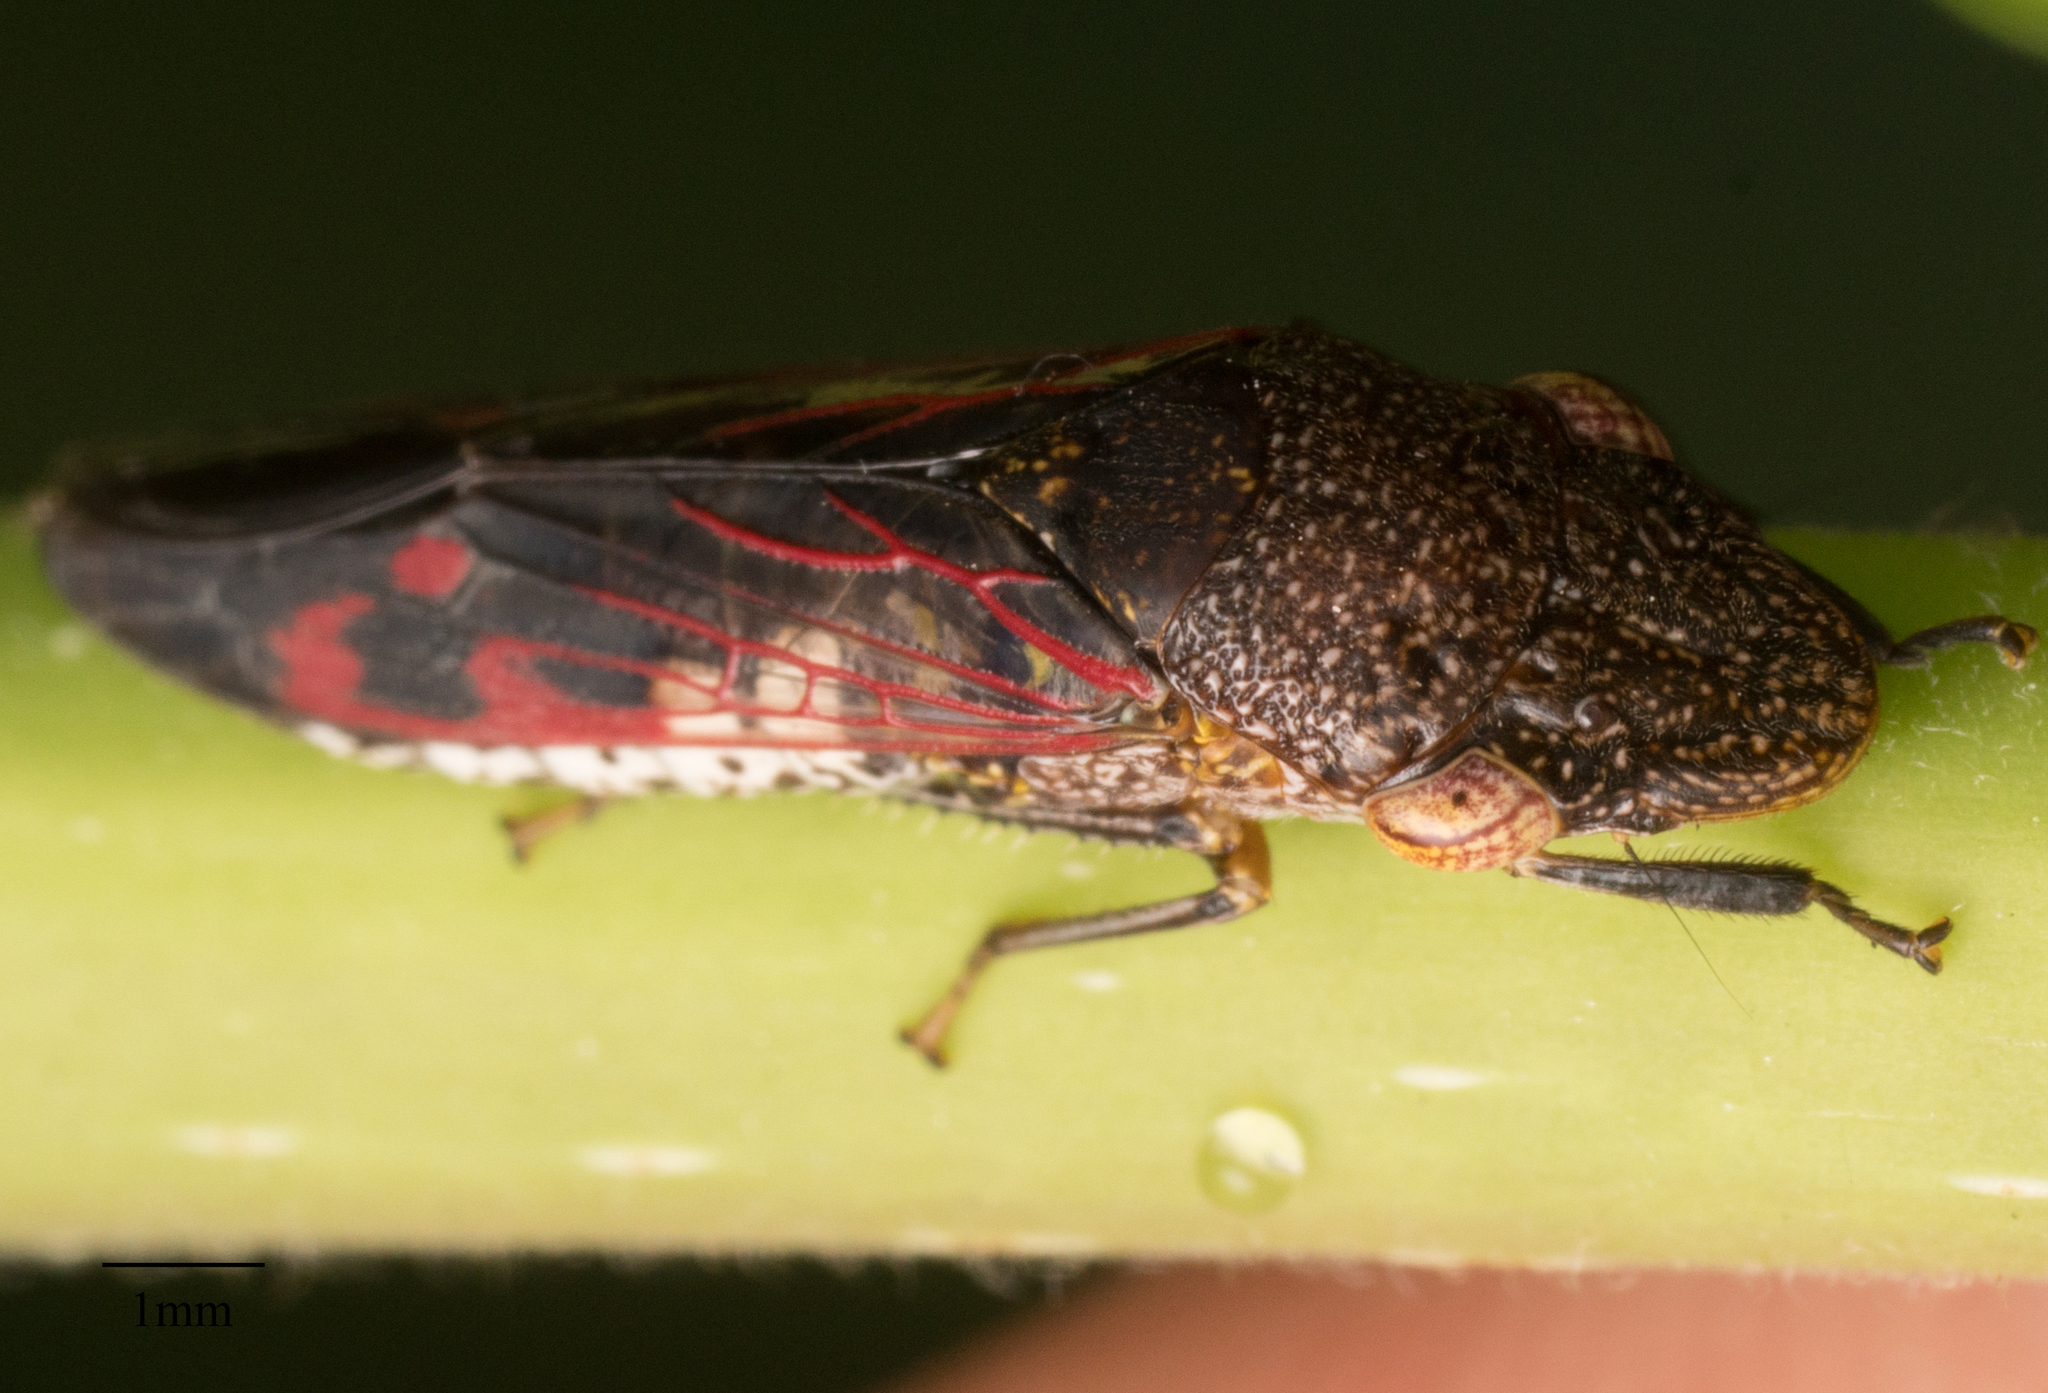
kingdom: Animalia
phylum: Arthropoda
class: Insecta
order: Hemiptera
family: Cicadellidae
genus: Homalodisca
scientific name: Homalodisca vitripennis
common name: Glassy-winged sharpshooter
